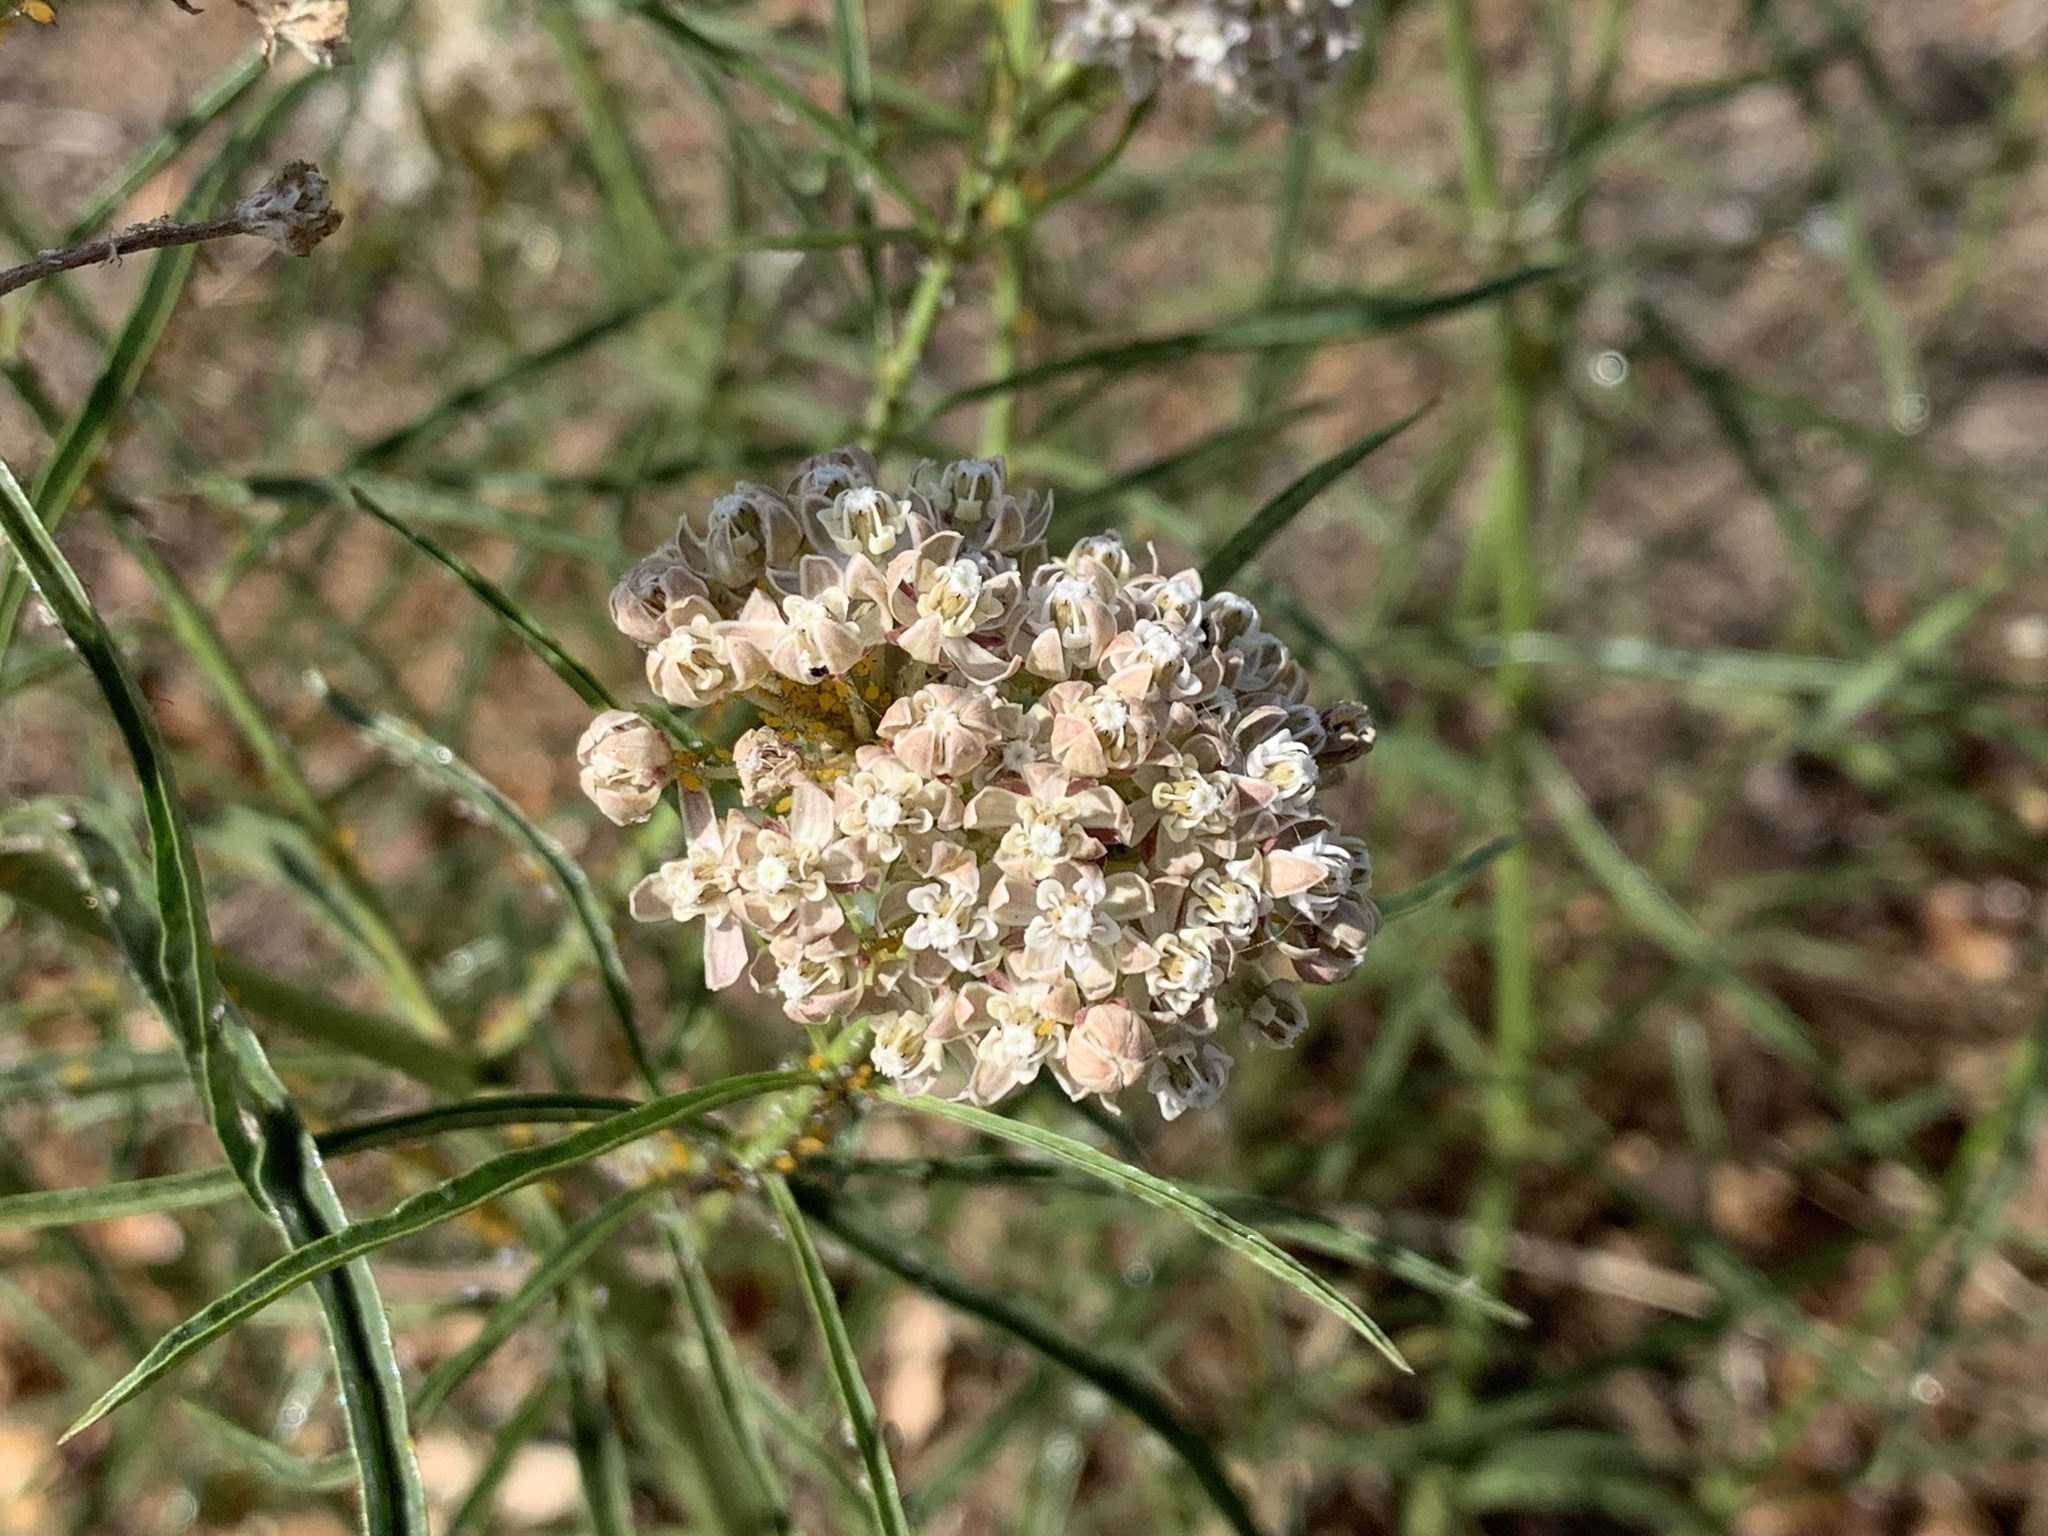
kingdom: Plantae
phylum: Tracheophyta
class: Magnoliopsida
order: Gentianales
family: Apocynaceae
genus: Asclepias
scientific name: Asclepias fascicularis
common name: Mexican milkweed
